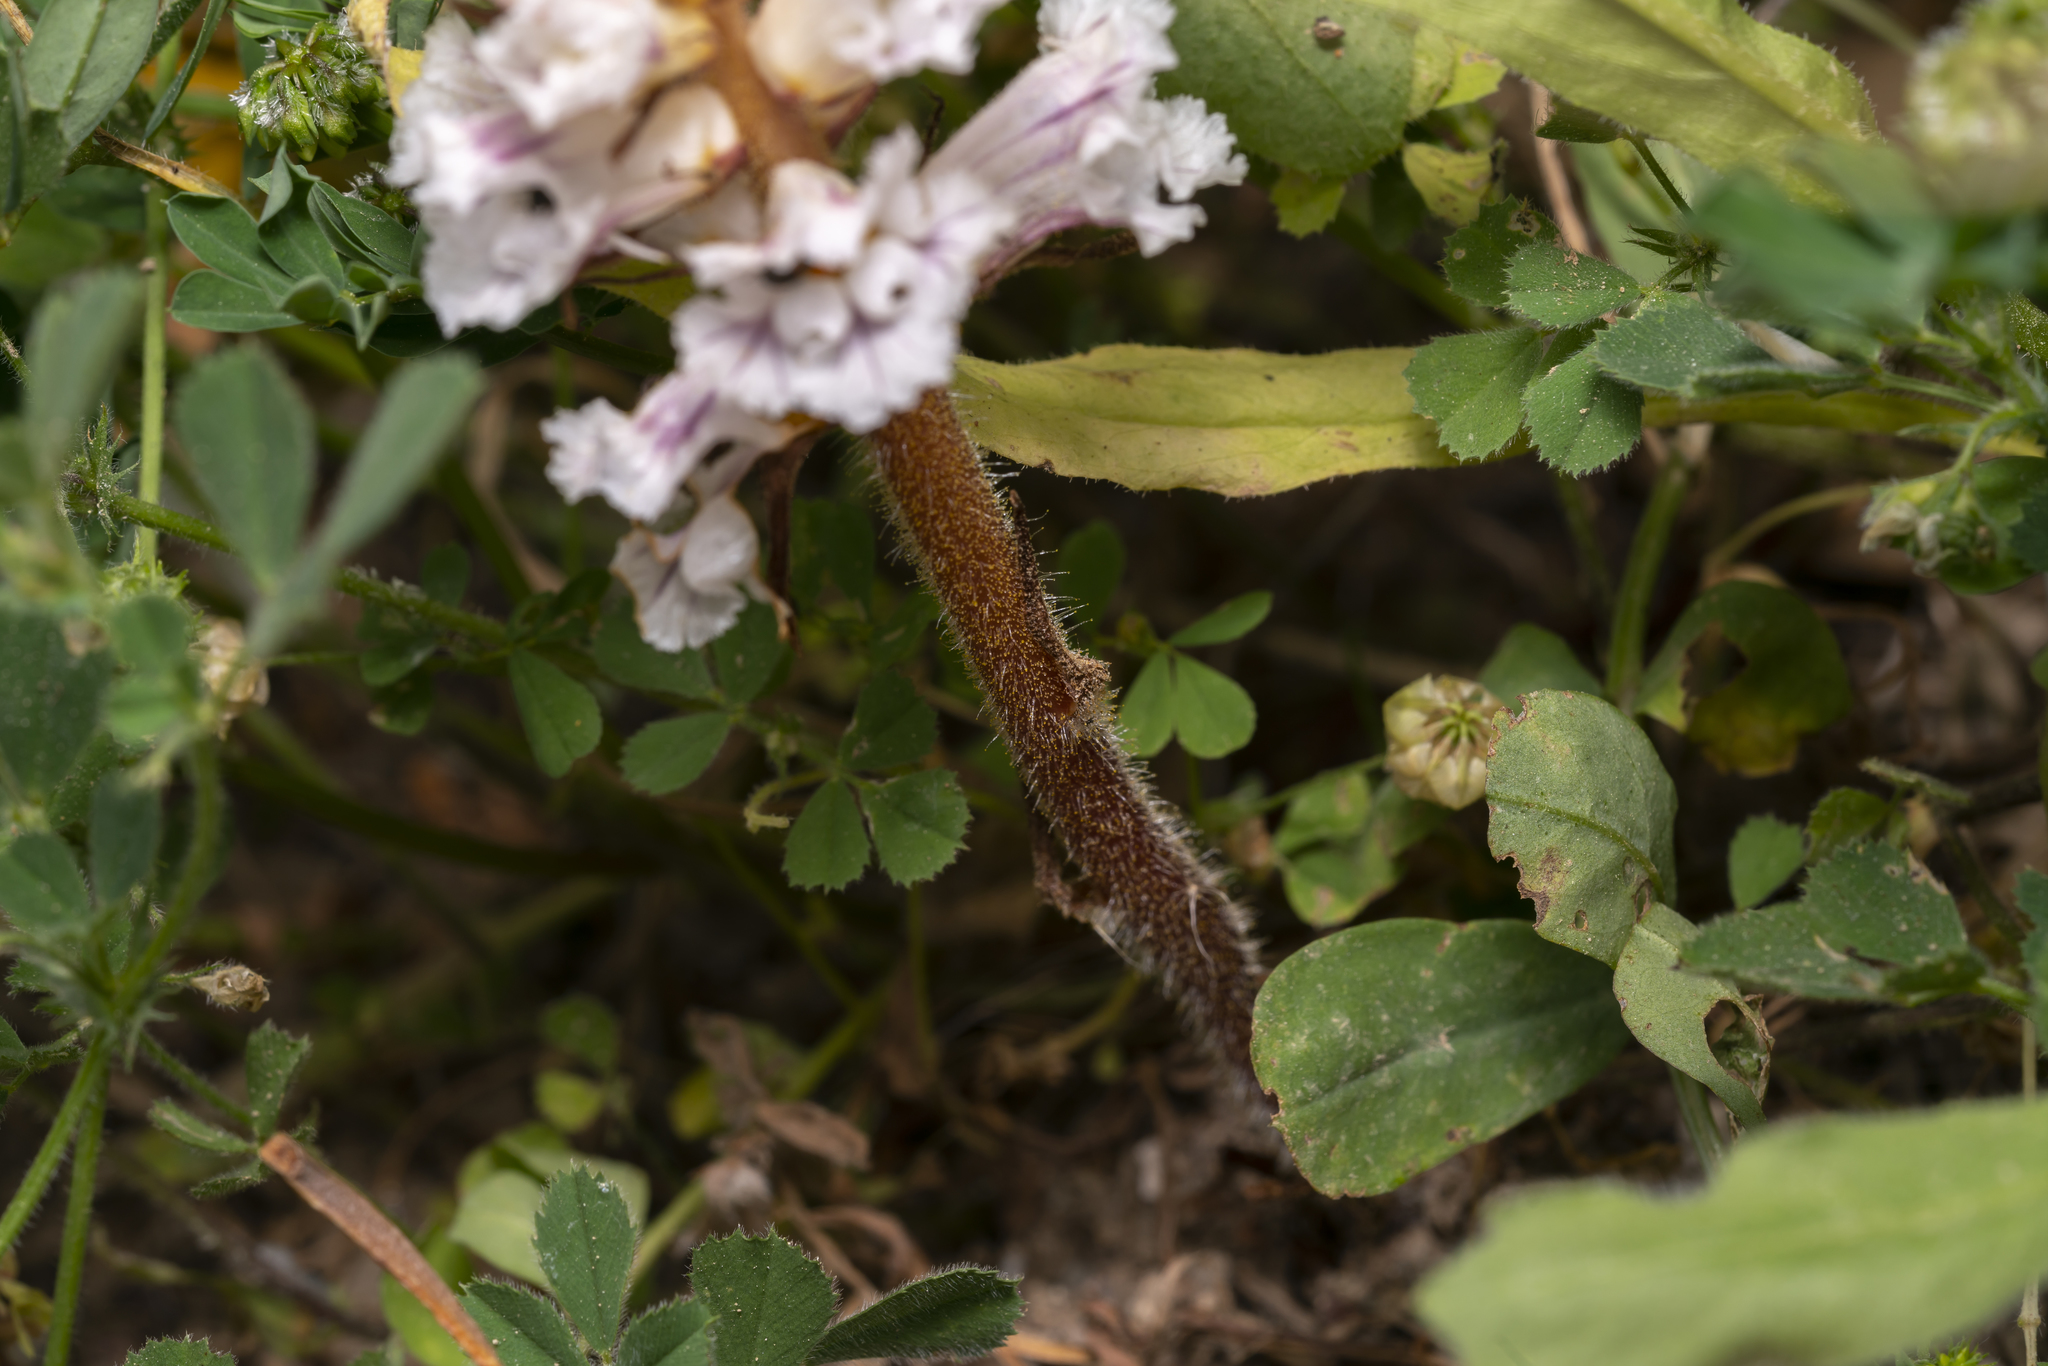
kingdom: Plantae
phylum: Tracheophyta
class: Magnoliopsida
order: Lamiales
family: Orobanchaceae
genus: Orobanche
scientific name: Orobanche crenata
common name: Bean broomrape
